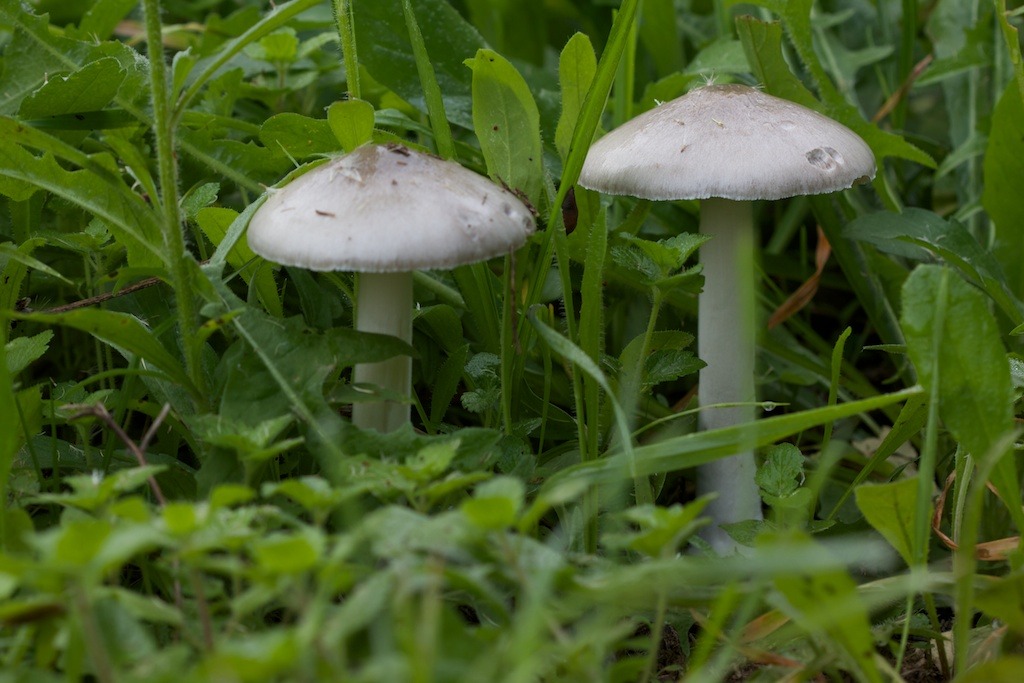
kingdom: Fungi
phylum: Basidiomycota
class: Agaricomycetes
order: Agaricales
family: Pluteaceae
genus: Volvopluteus
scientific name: Volvopluteus gloiocephalus
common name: Stubble rosegill
